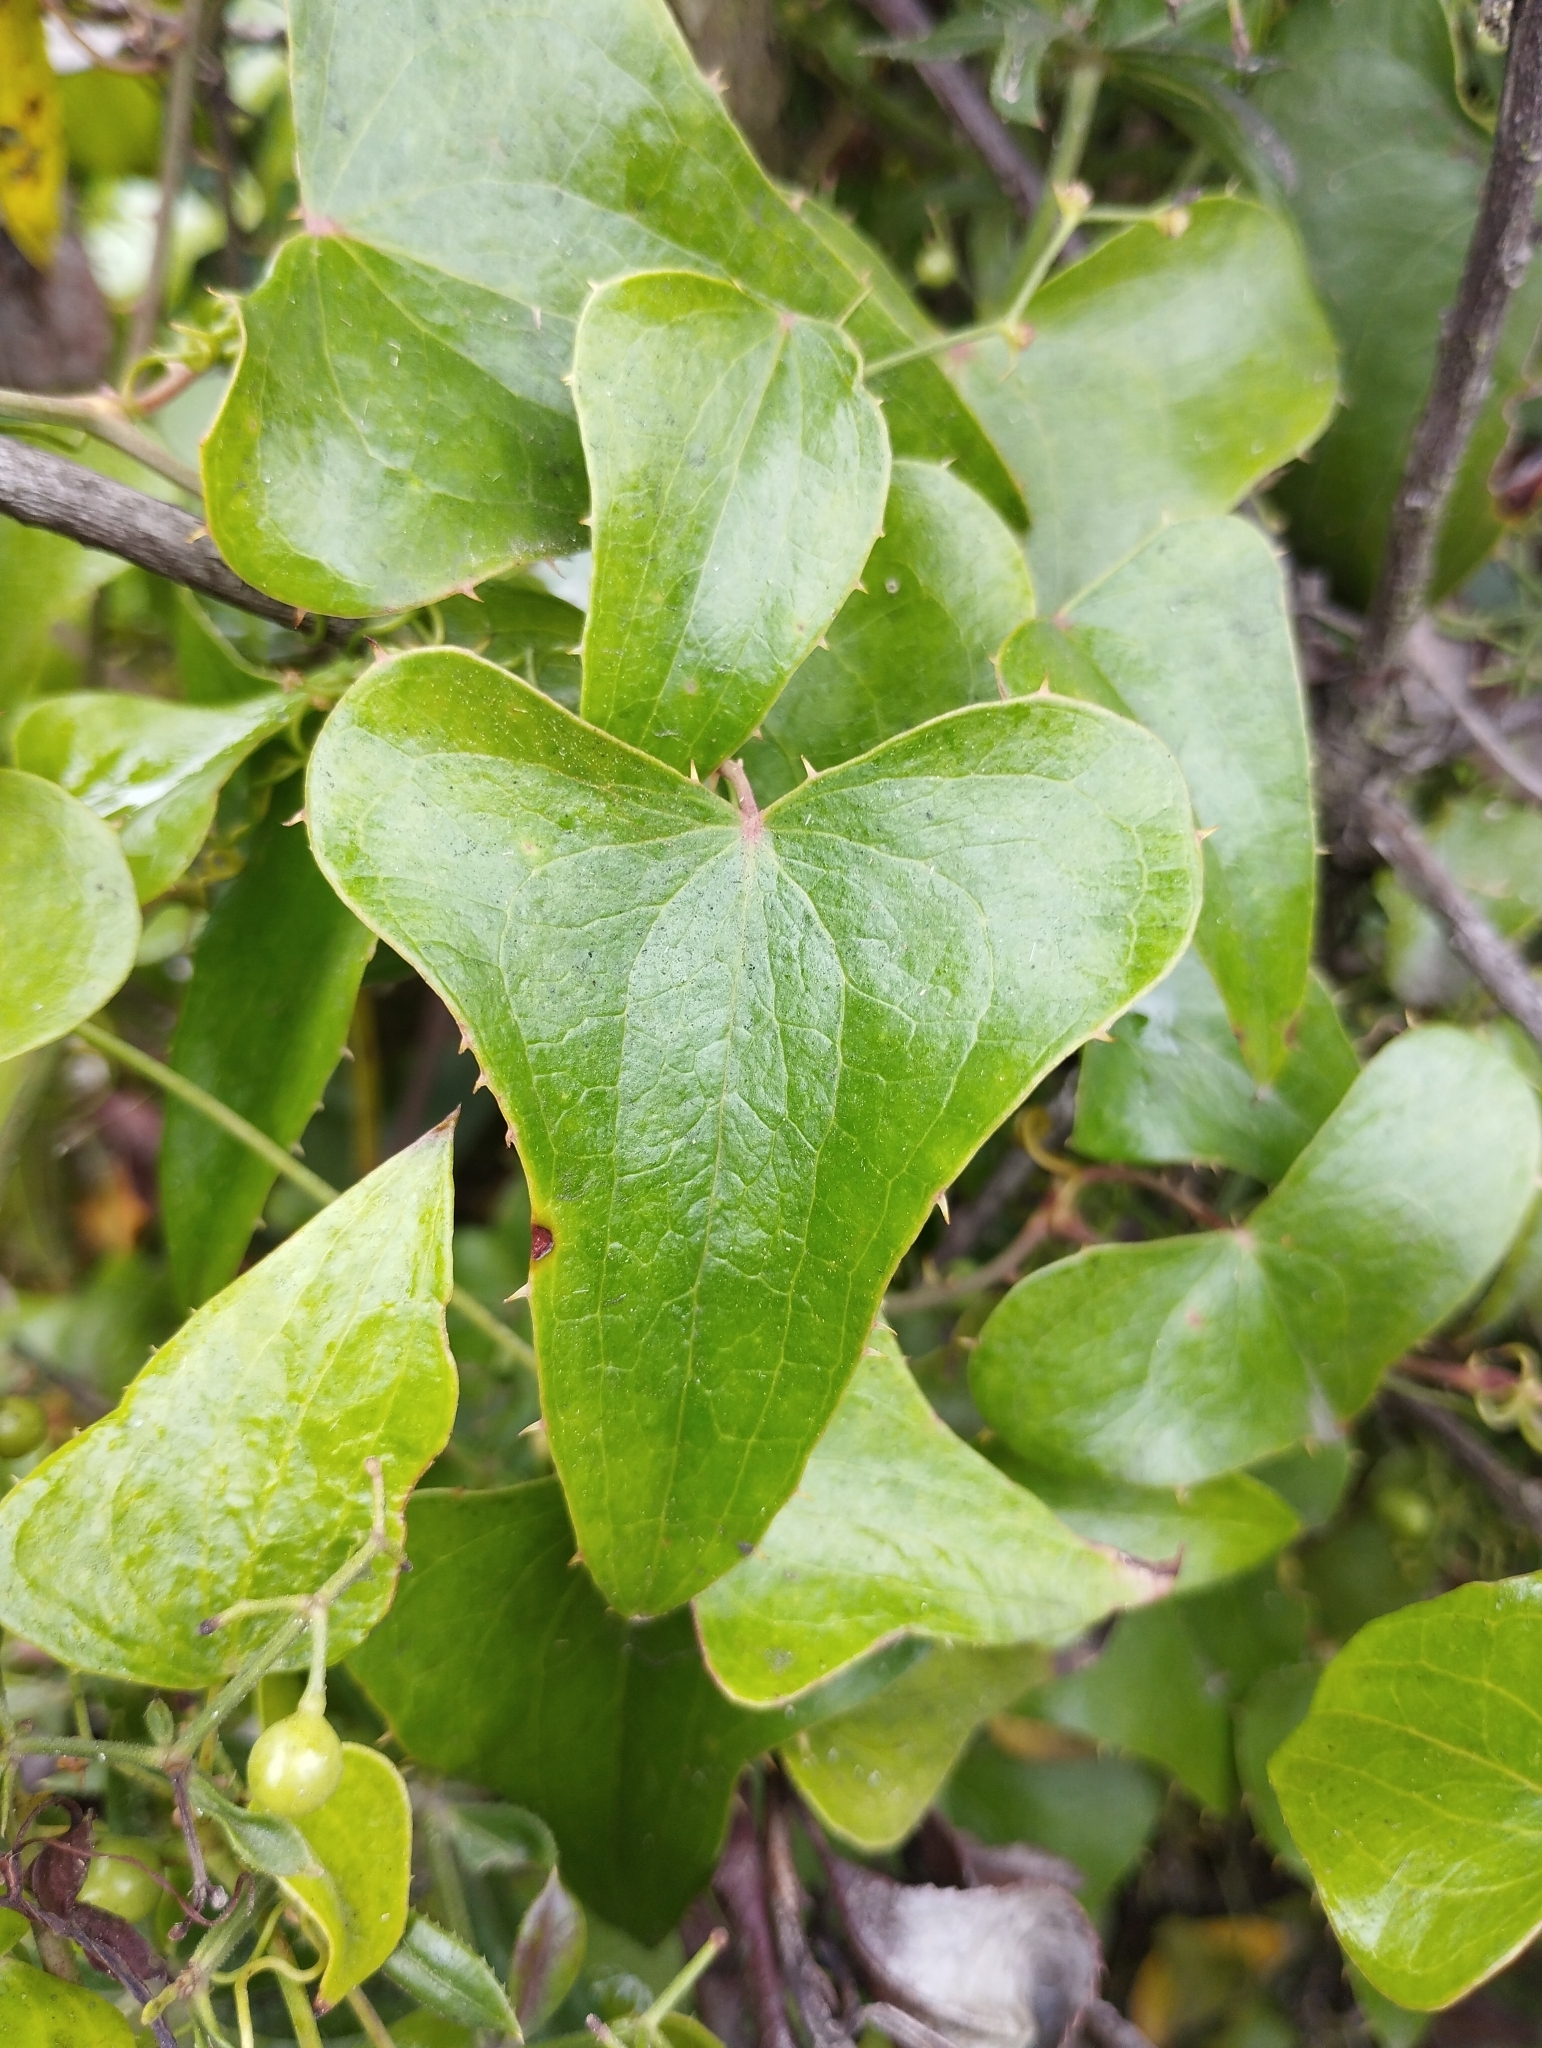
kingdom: Plantae
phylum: Tracheophyta
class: Liliopsida
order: Liliales
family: Smilacaceae
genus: Smilax
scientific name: Smilax aspera
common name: Common smilax
